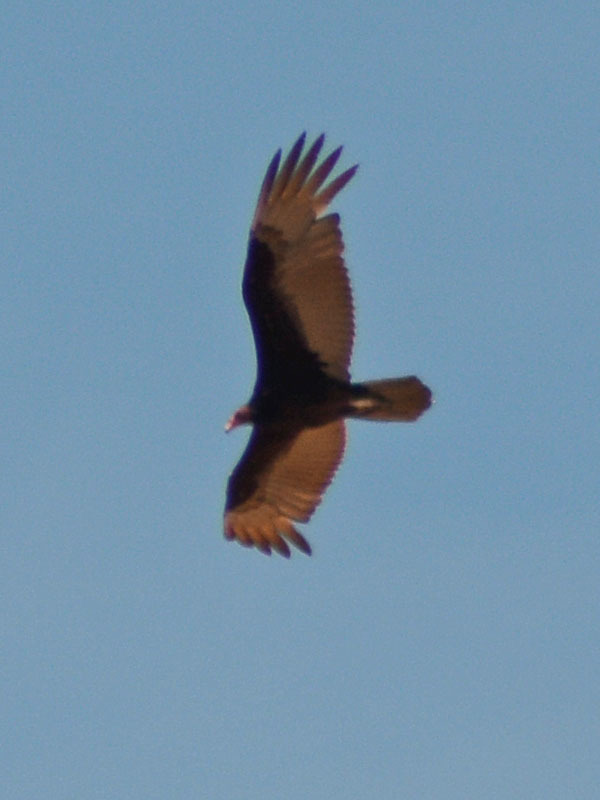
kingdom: Animalia
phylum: Chordata
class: Aves
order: Accipitriformes
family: Cathartidae
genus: Cathartes
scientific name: Cathartes aura
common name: Turkey vulture
